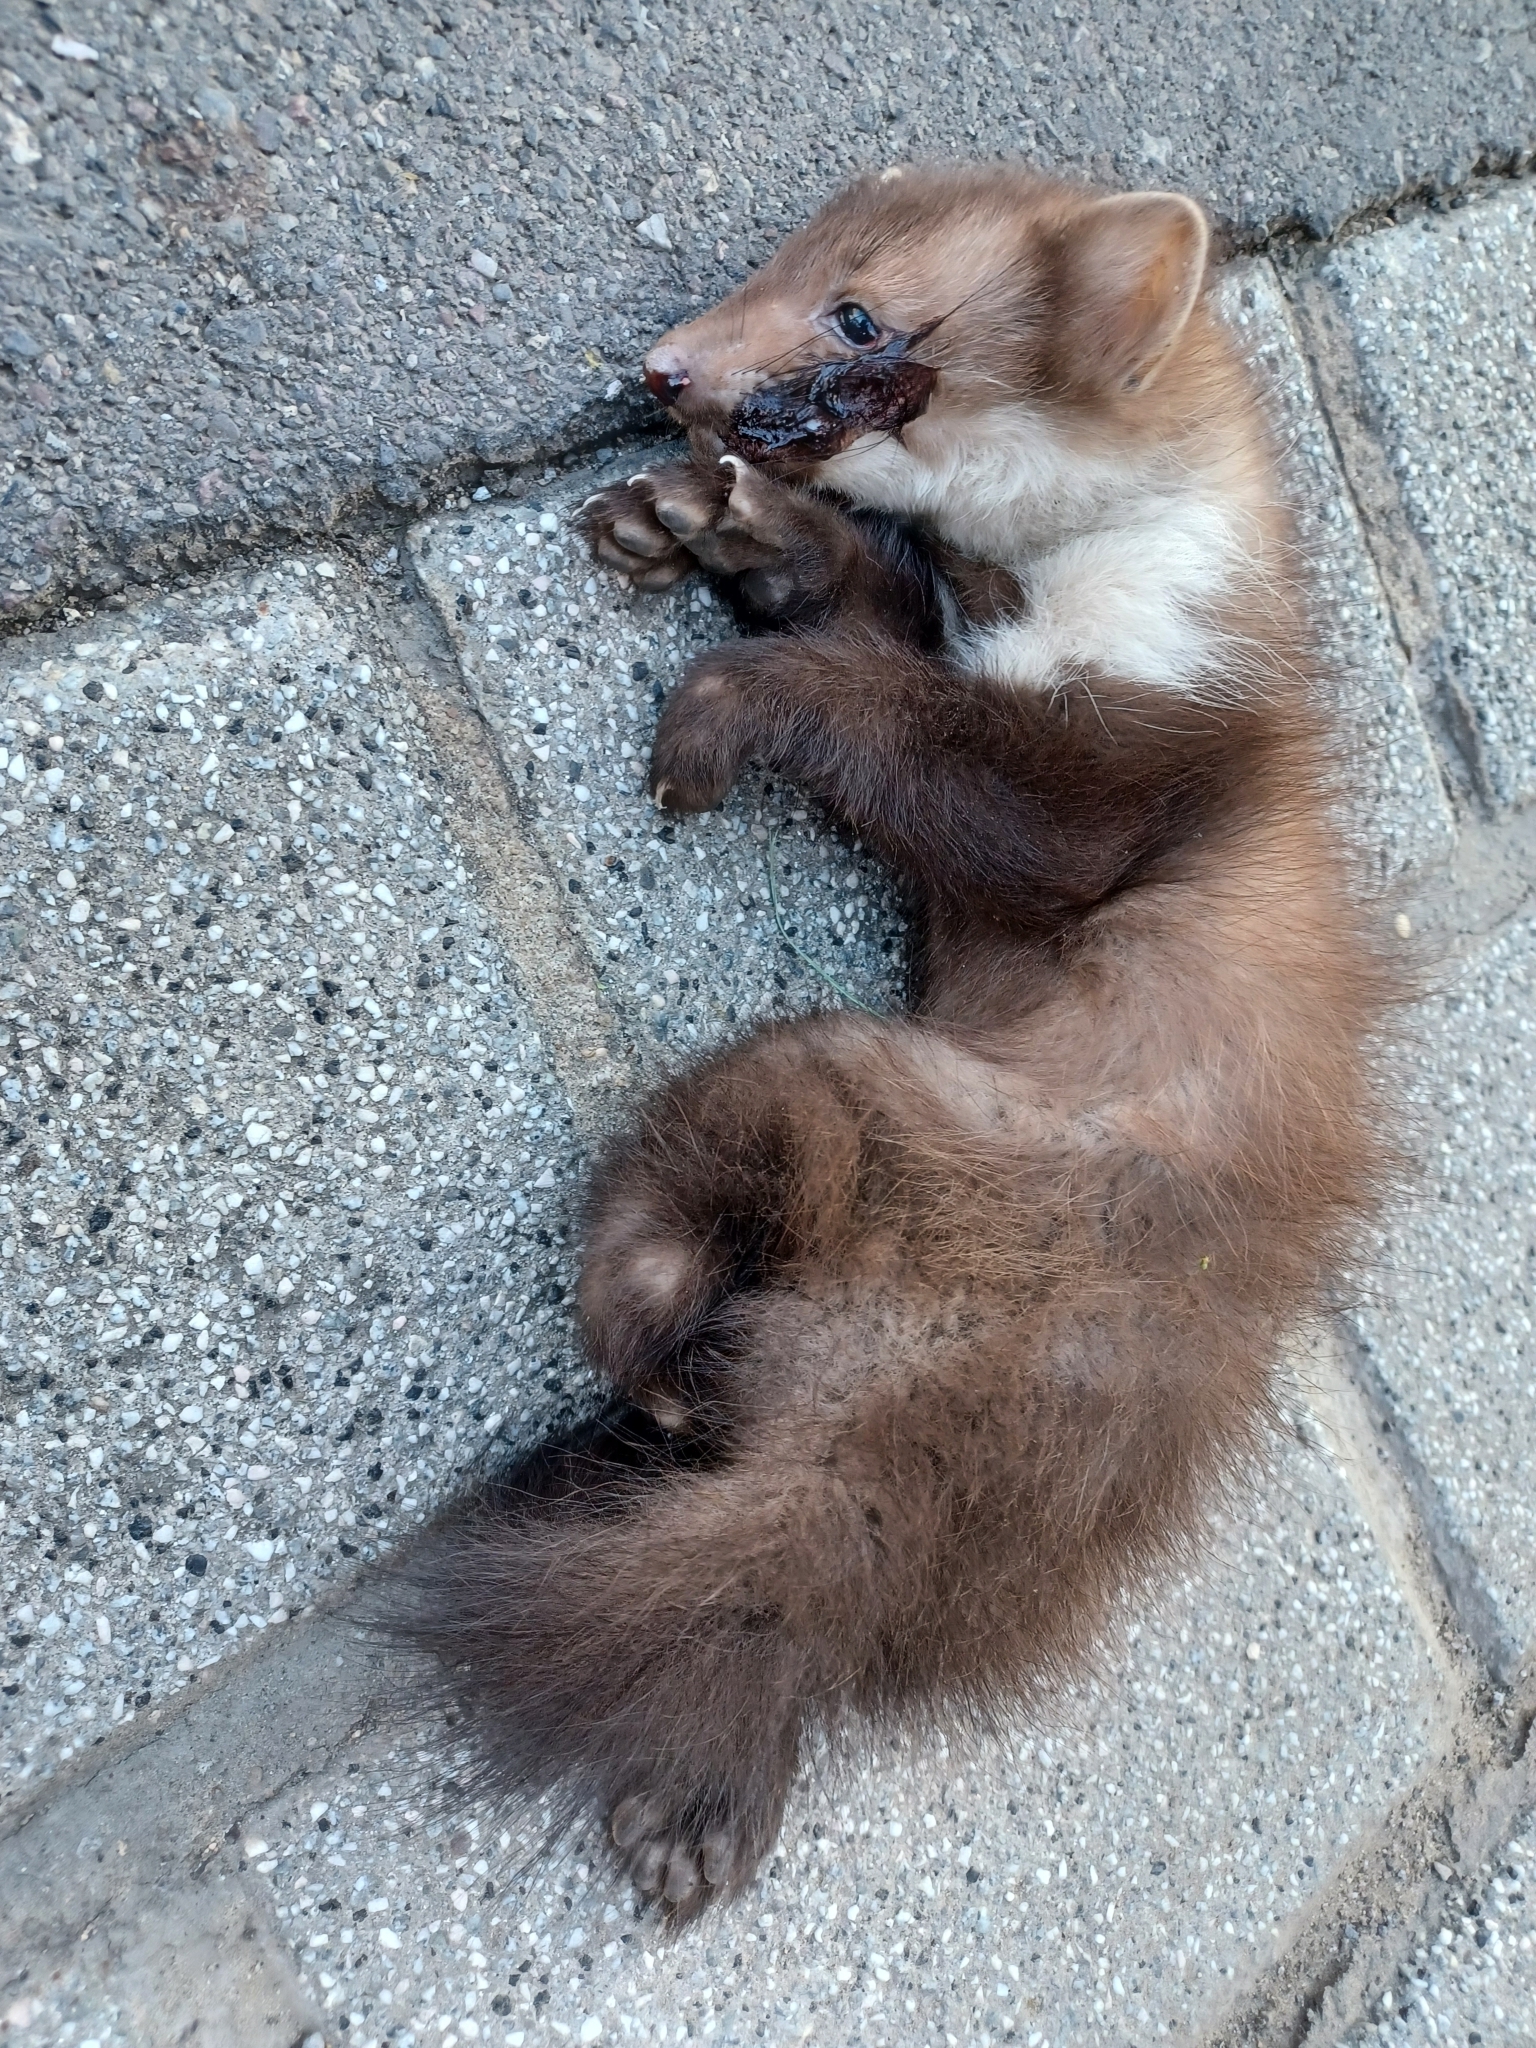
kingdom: Animalia
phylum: Chordata
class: Mammalia
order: Carnivora
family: Mustelidae
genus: Martes
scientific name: Martes foina
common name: Beech marten
